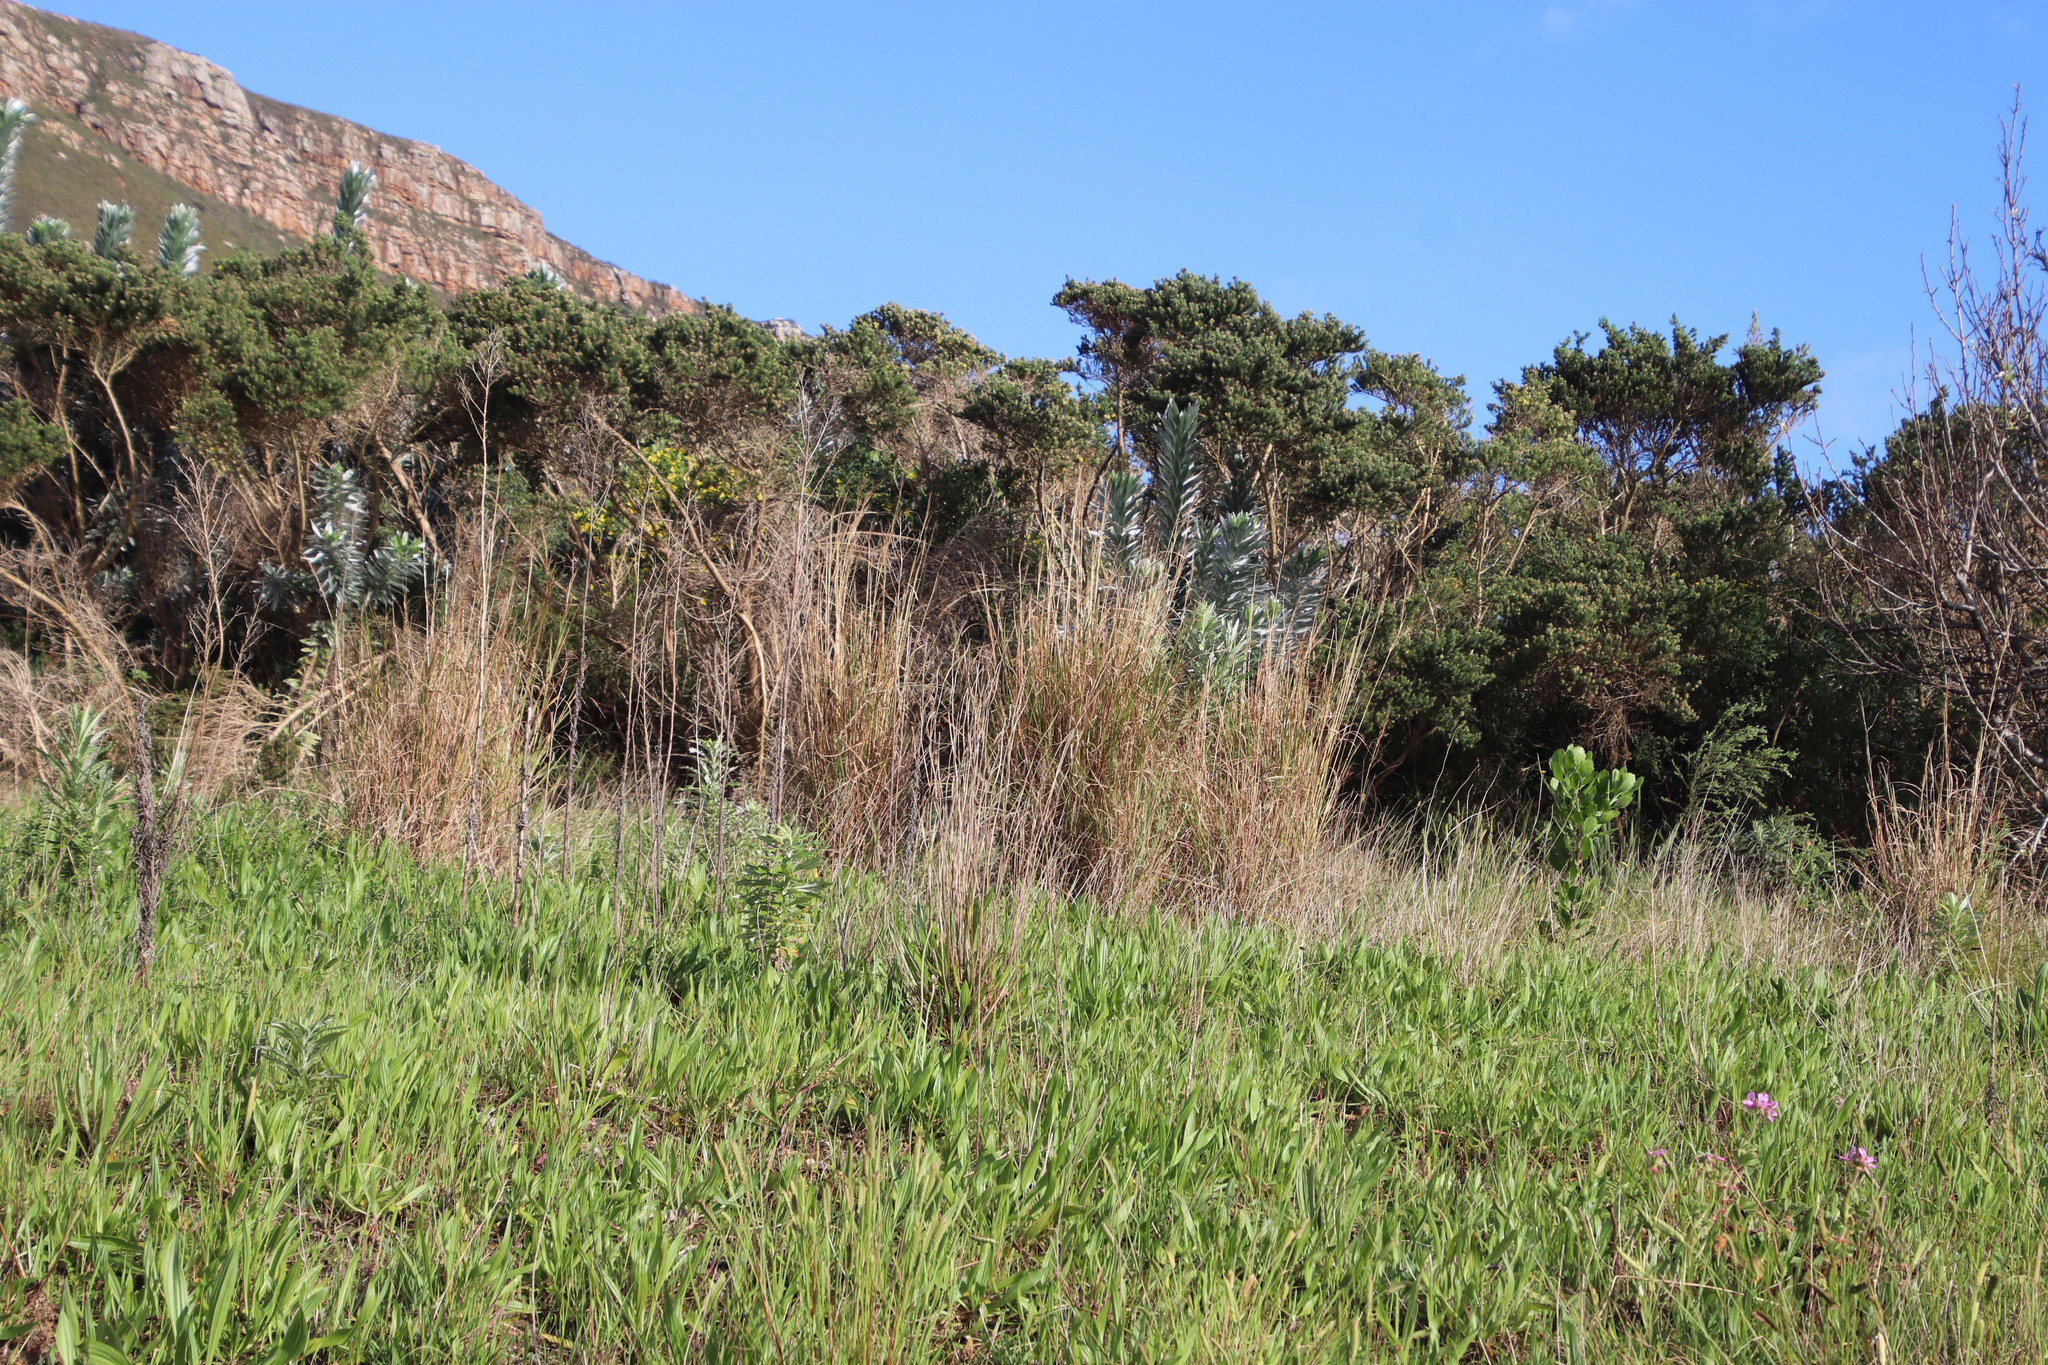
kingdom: Plantae
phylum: Tracheophyta
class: Liliopsida
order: Poales
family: Poaceae
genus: Hyparrhenia
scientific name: Hyparrhenia hirta
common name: Thatching grass
